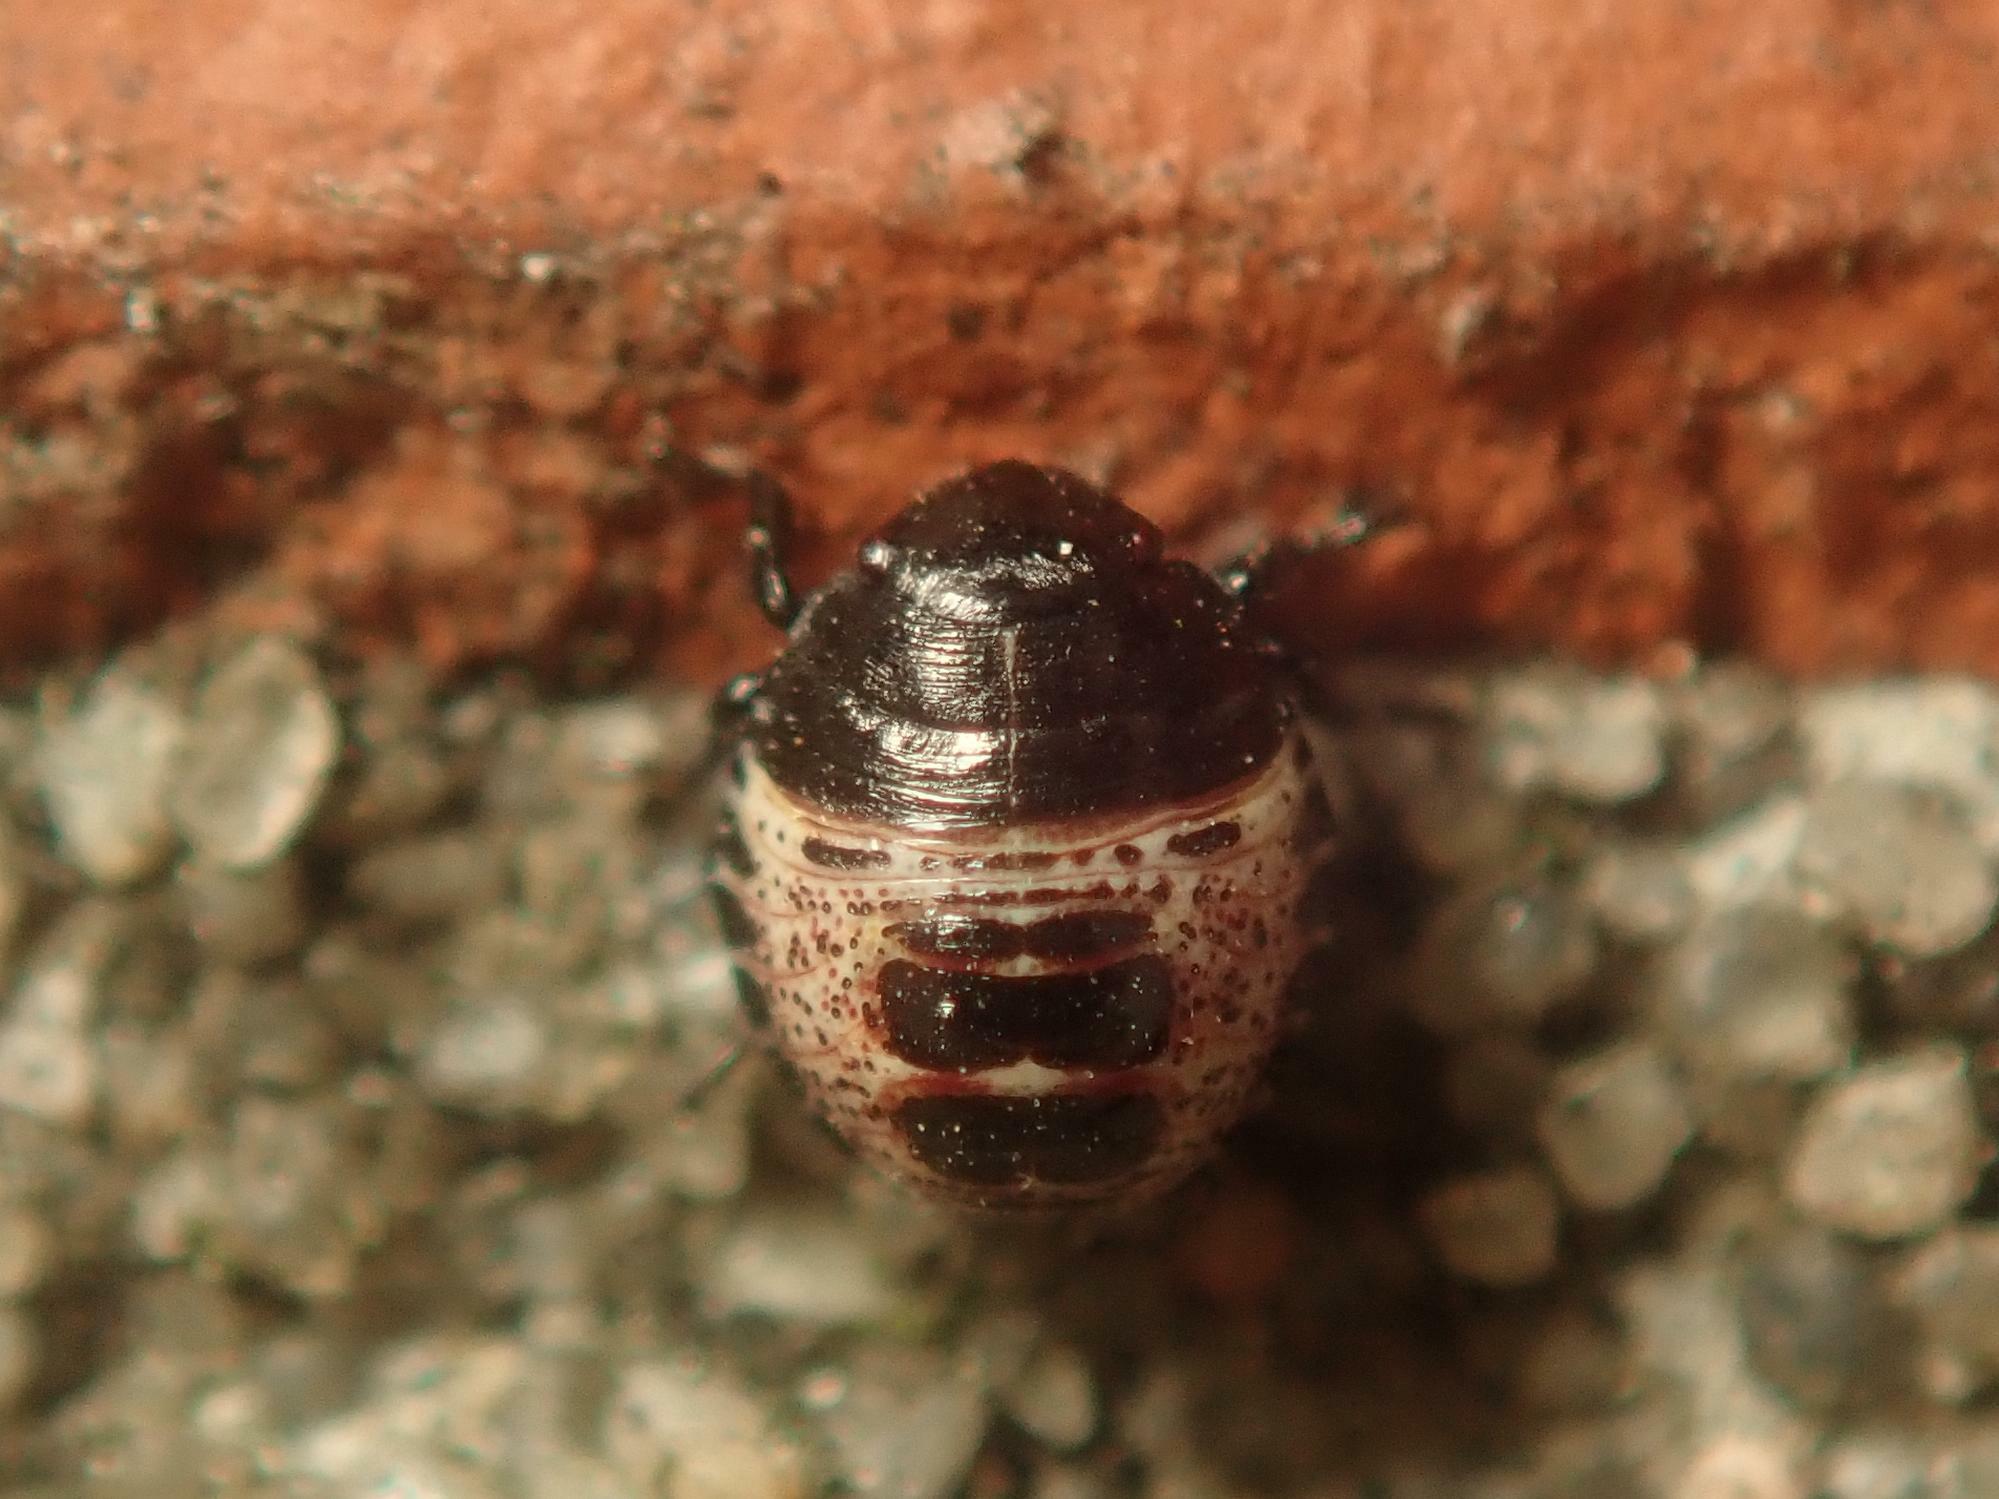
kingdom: Animalia
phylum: Arthropoda
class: Insecta
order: Hemiptera
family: Pentatomidae
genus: Rhaphigaster
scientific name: Rhaphigaster nebulosa
